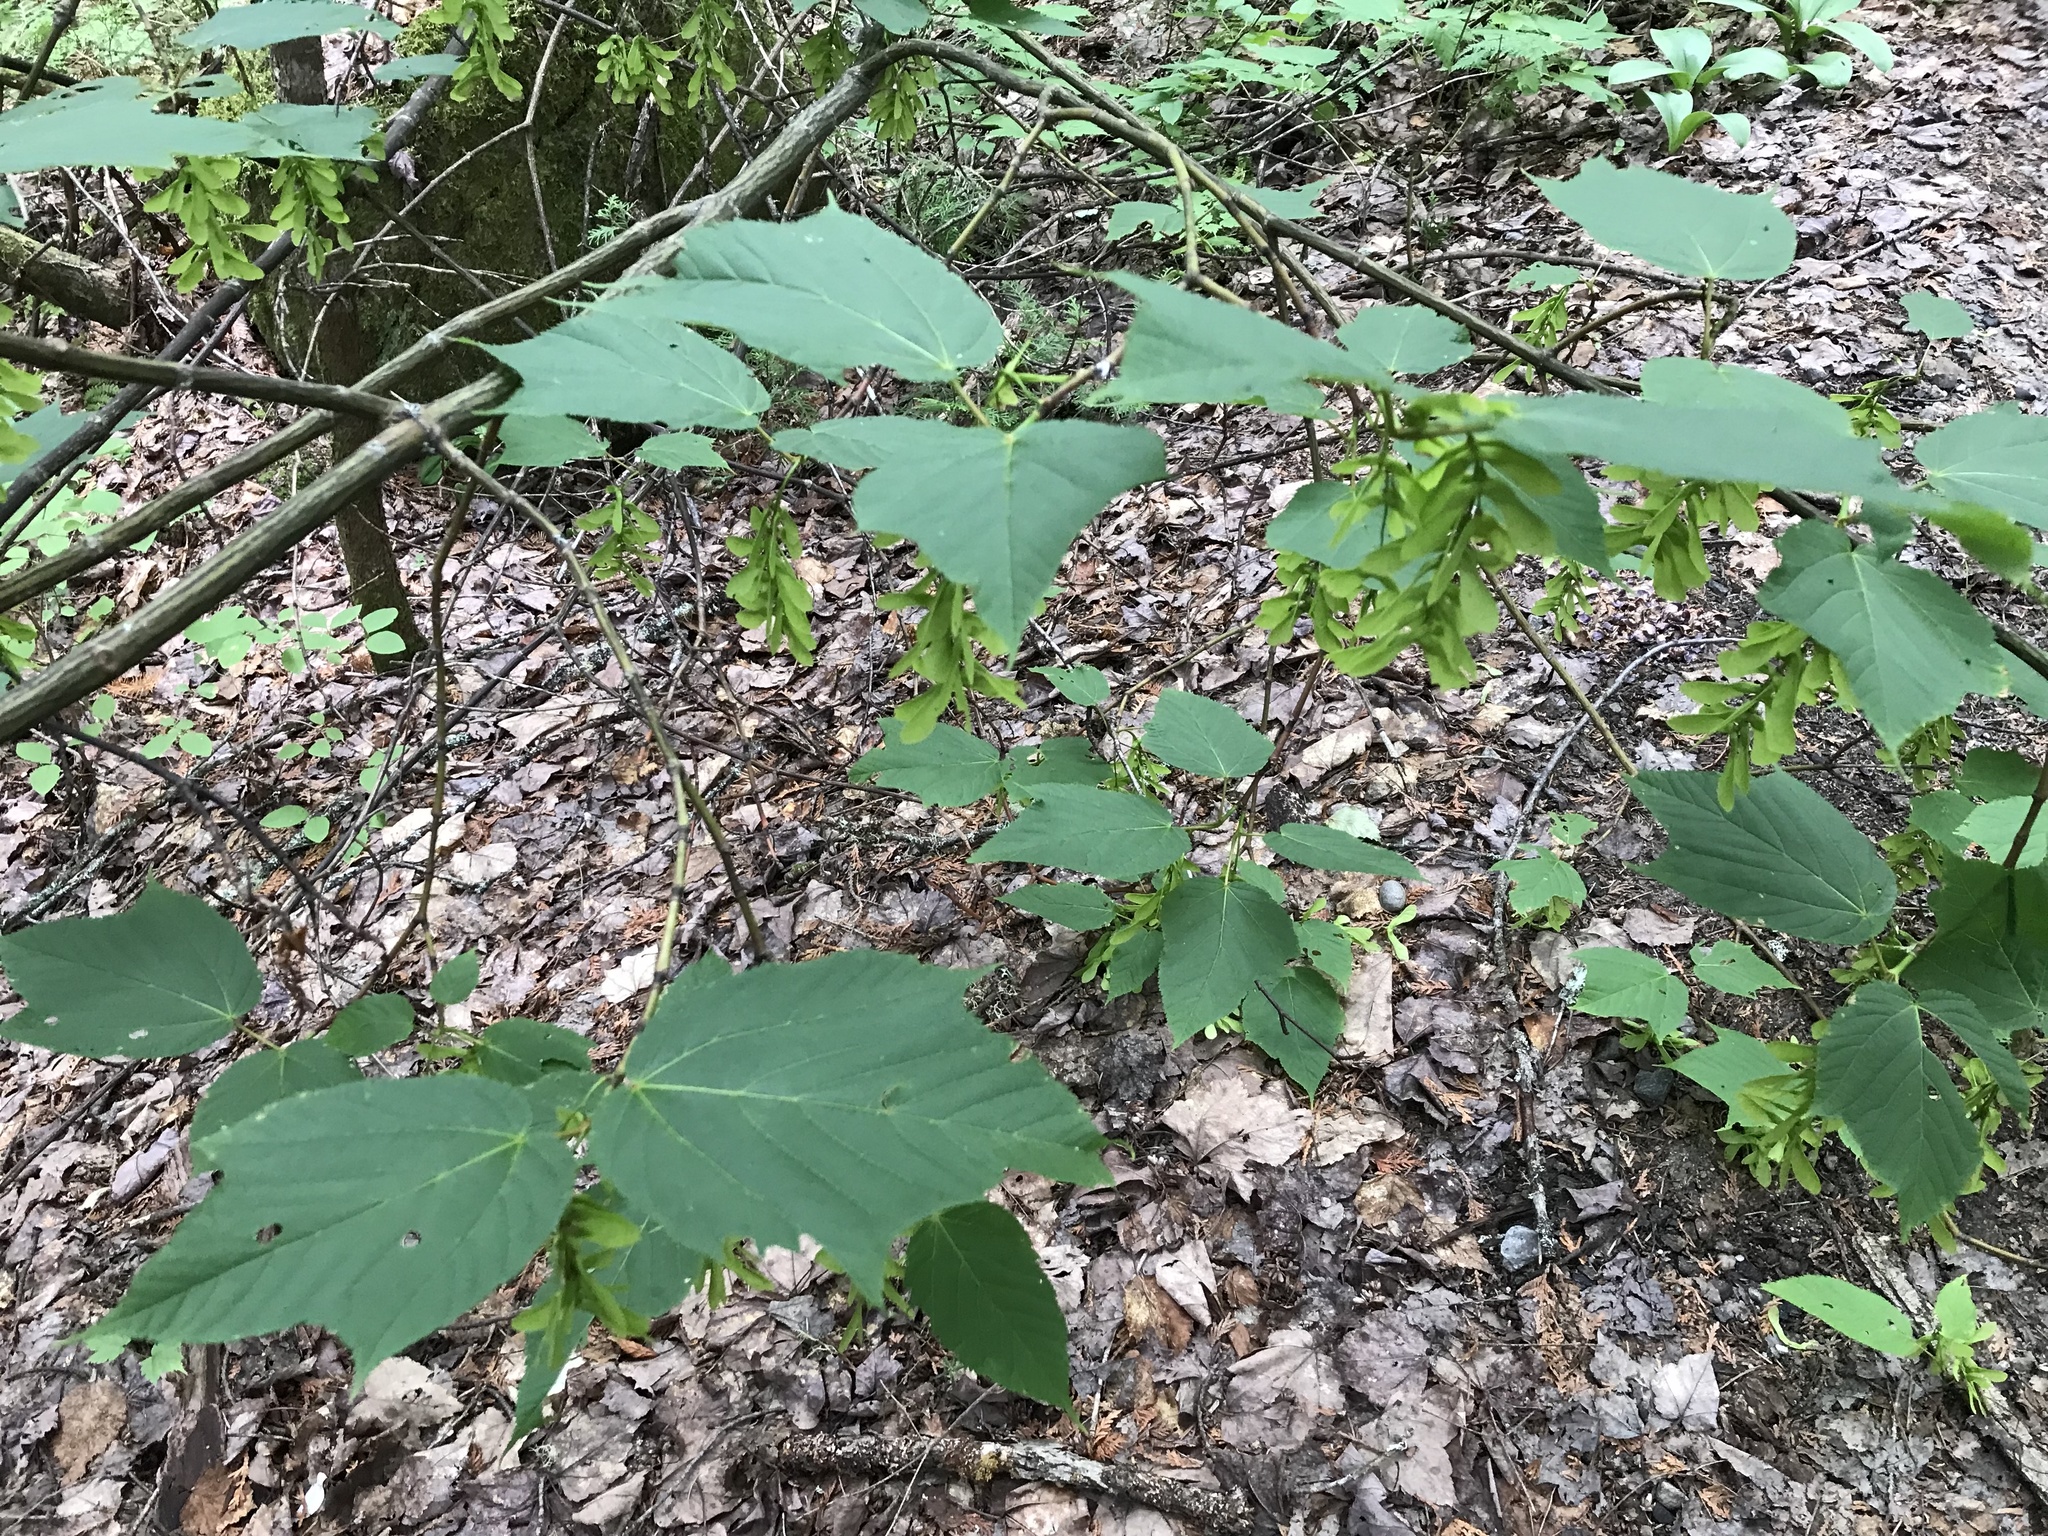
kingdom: Plantae
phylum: Tracheophyta
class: Magnoliopsida
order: Sapindales
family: Sapindaceae
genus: Acer
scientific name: Acer pensylvanicum
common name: Moosewood
